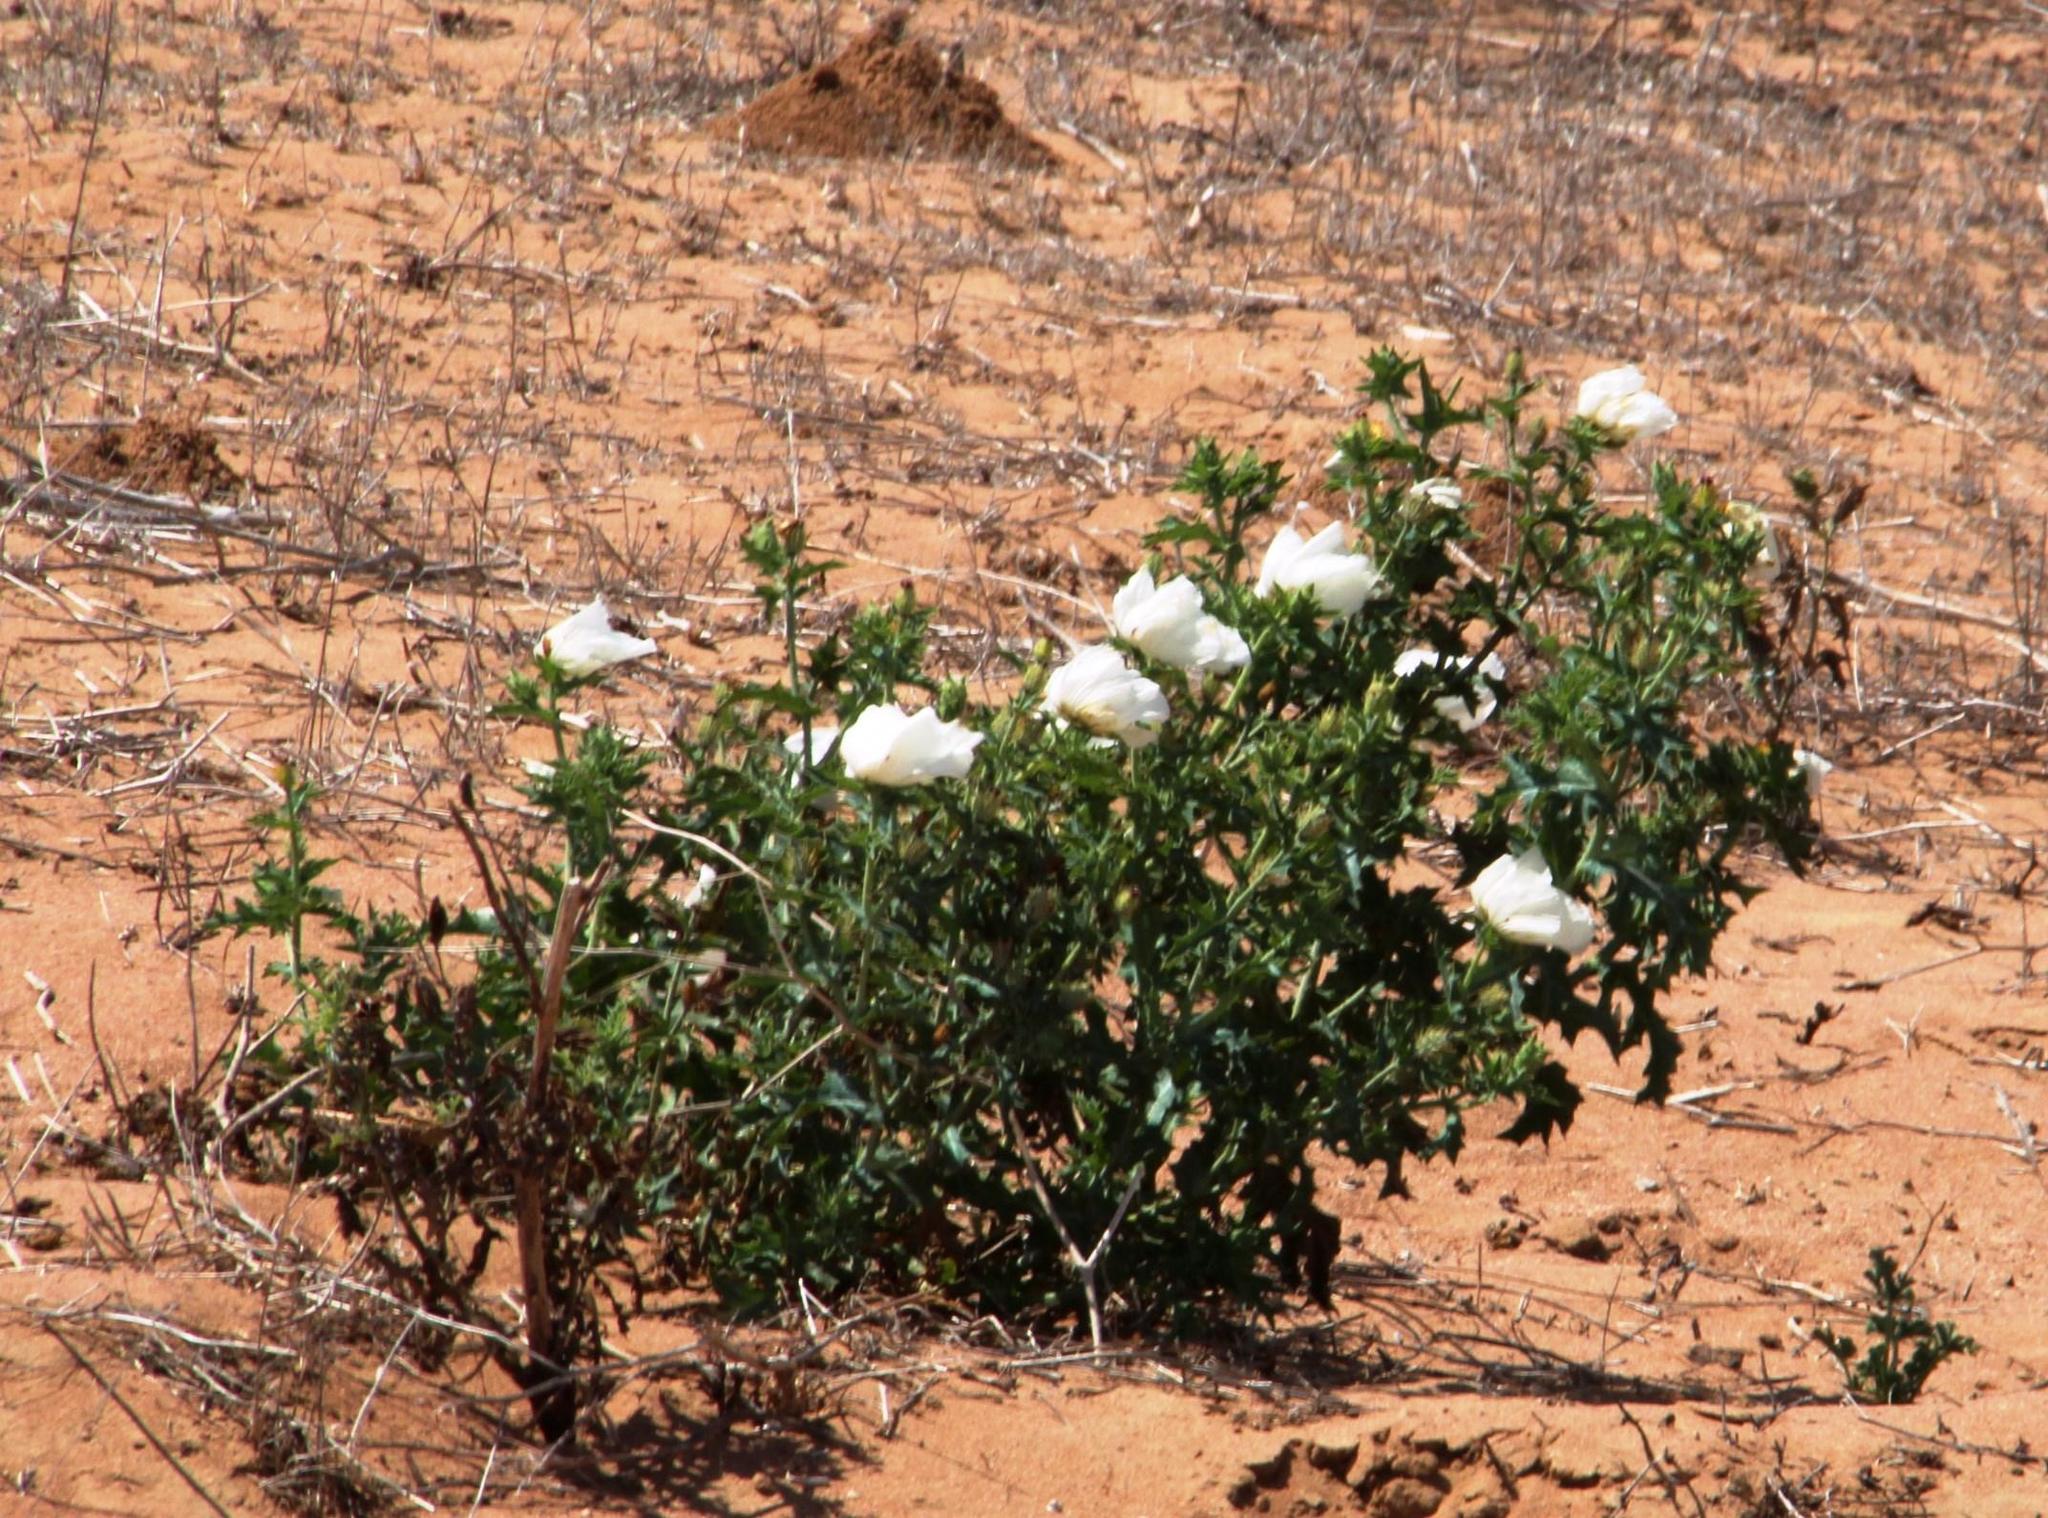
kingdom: Plantae
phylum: Tracheophyta
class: Magnoliopsida
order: Ranunculales
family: Papaveraceae
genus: Argemone
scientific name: Argemone ochroleuca
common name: White-flower mexican-poppy
